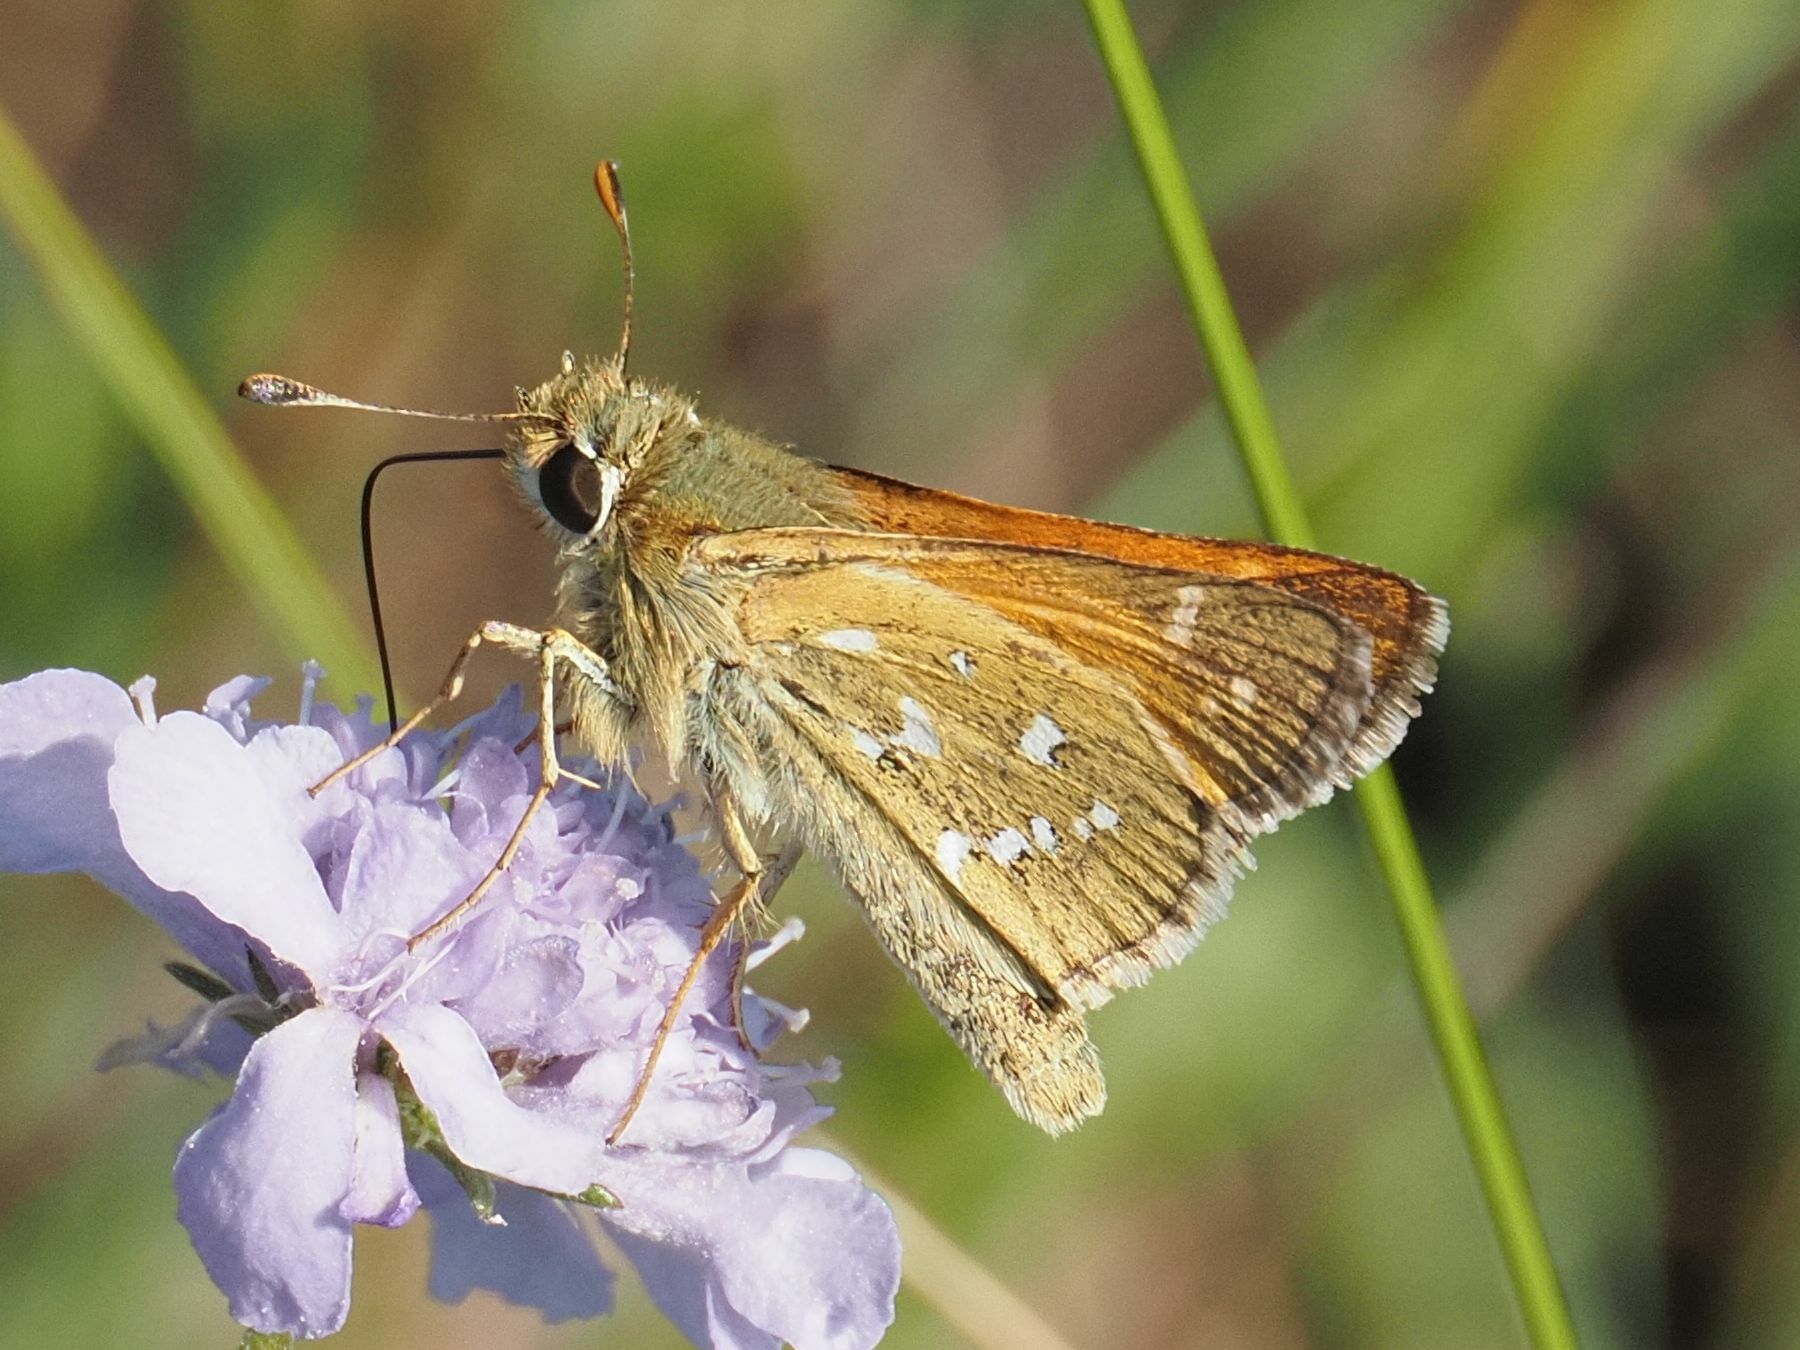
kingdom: Animalia
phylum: Arthropoda
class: Insecta
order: Lepidoptera
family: Hesperiidae
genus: Hesperia
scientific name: Hesperia comma
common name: Common branded skipper
